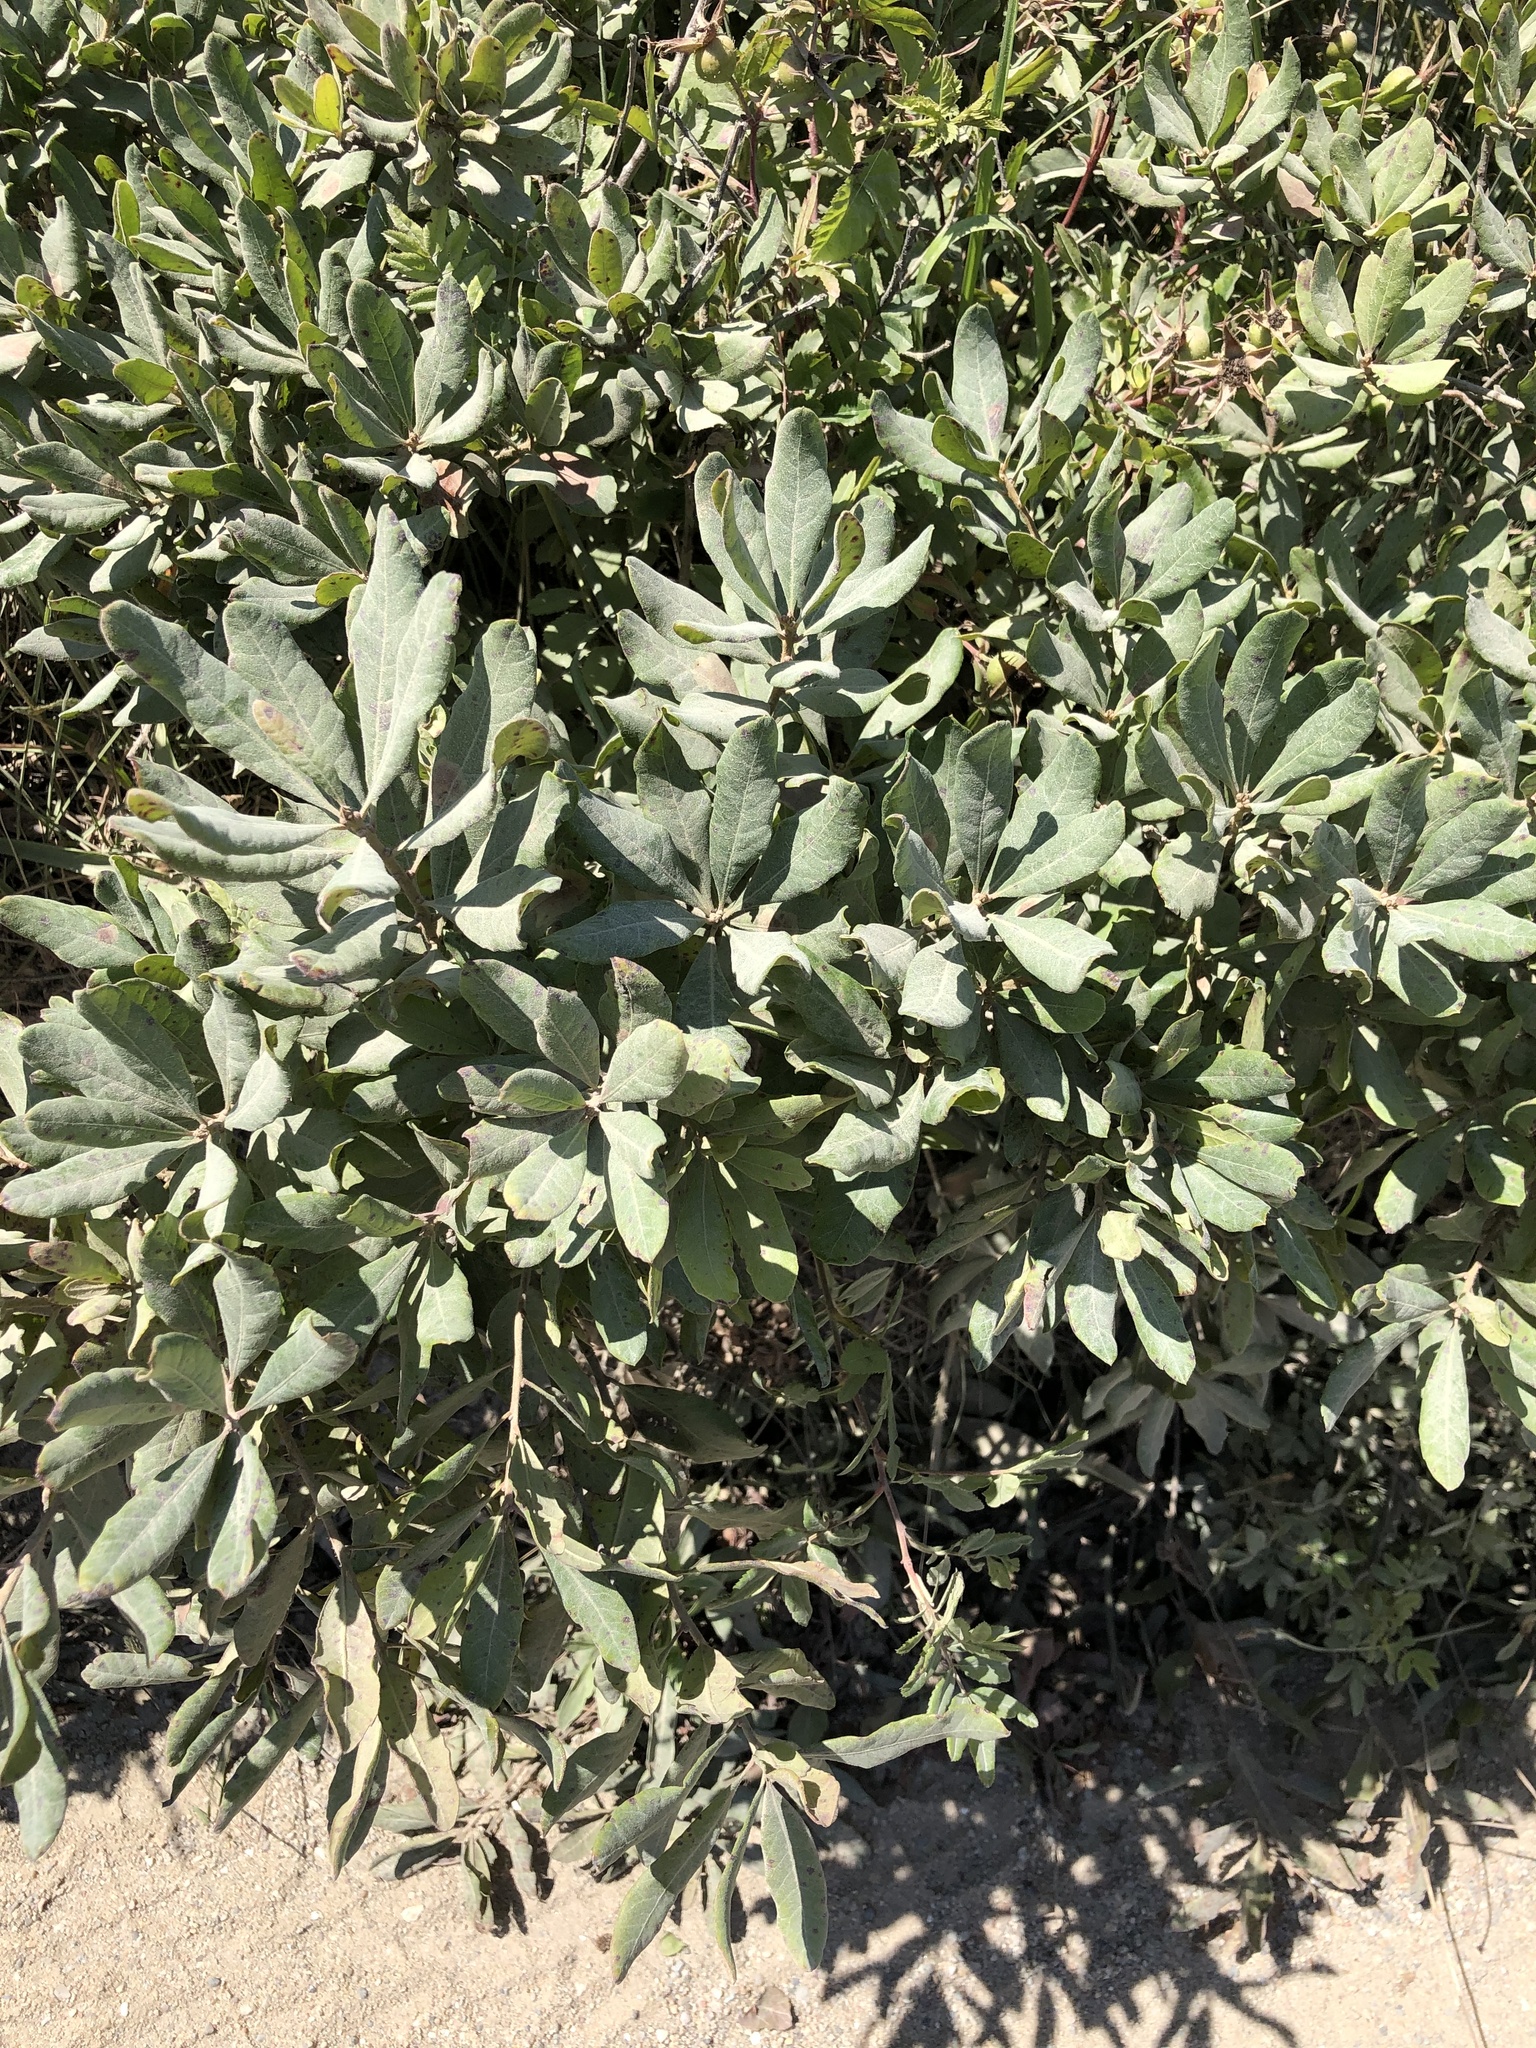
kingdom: Plantae
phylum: Tracheophyta
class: Magnoliopsida
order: Fagales
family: Myricaceae
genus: Morella
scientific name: Morella pensylvanica
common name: Northern bayberry
